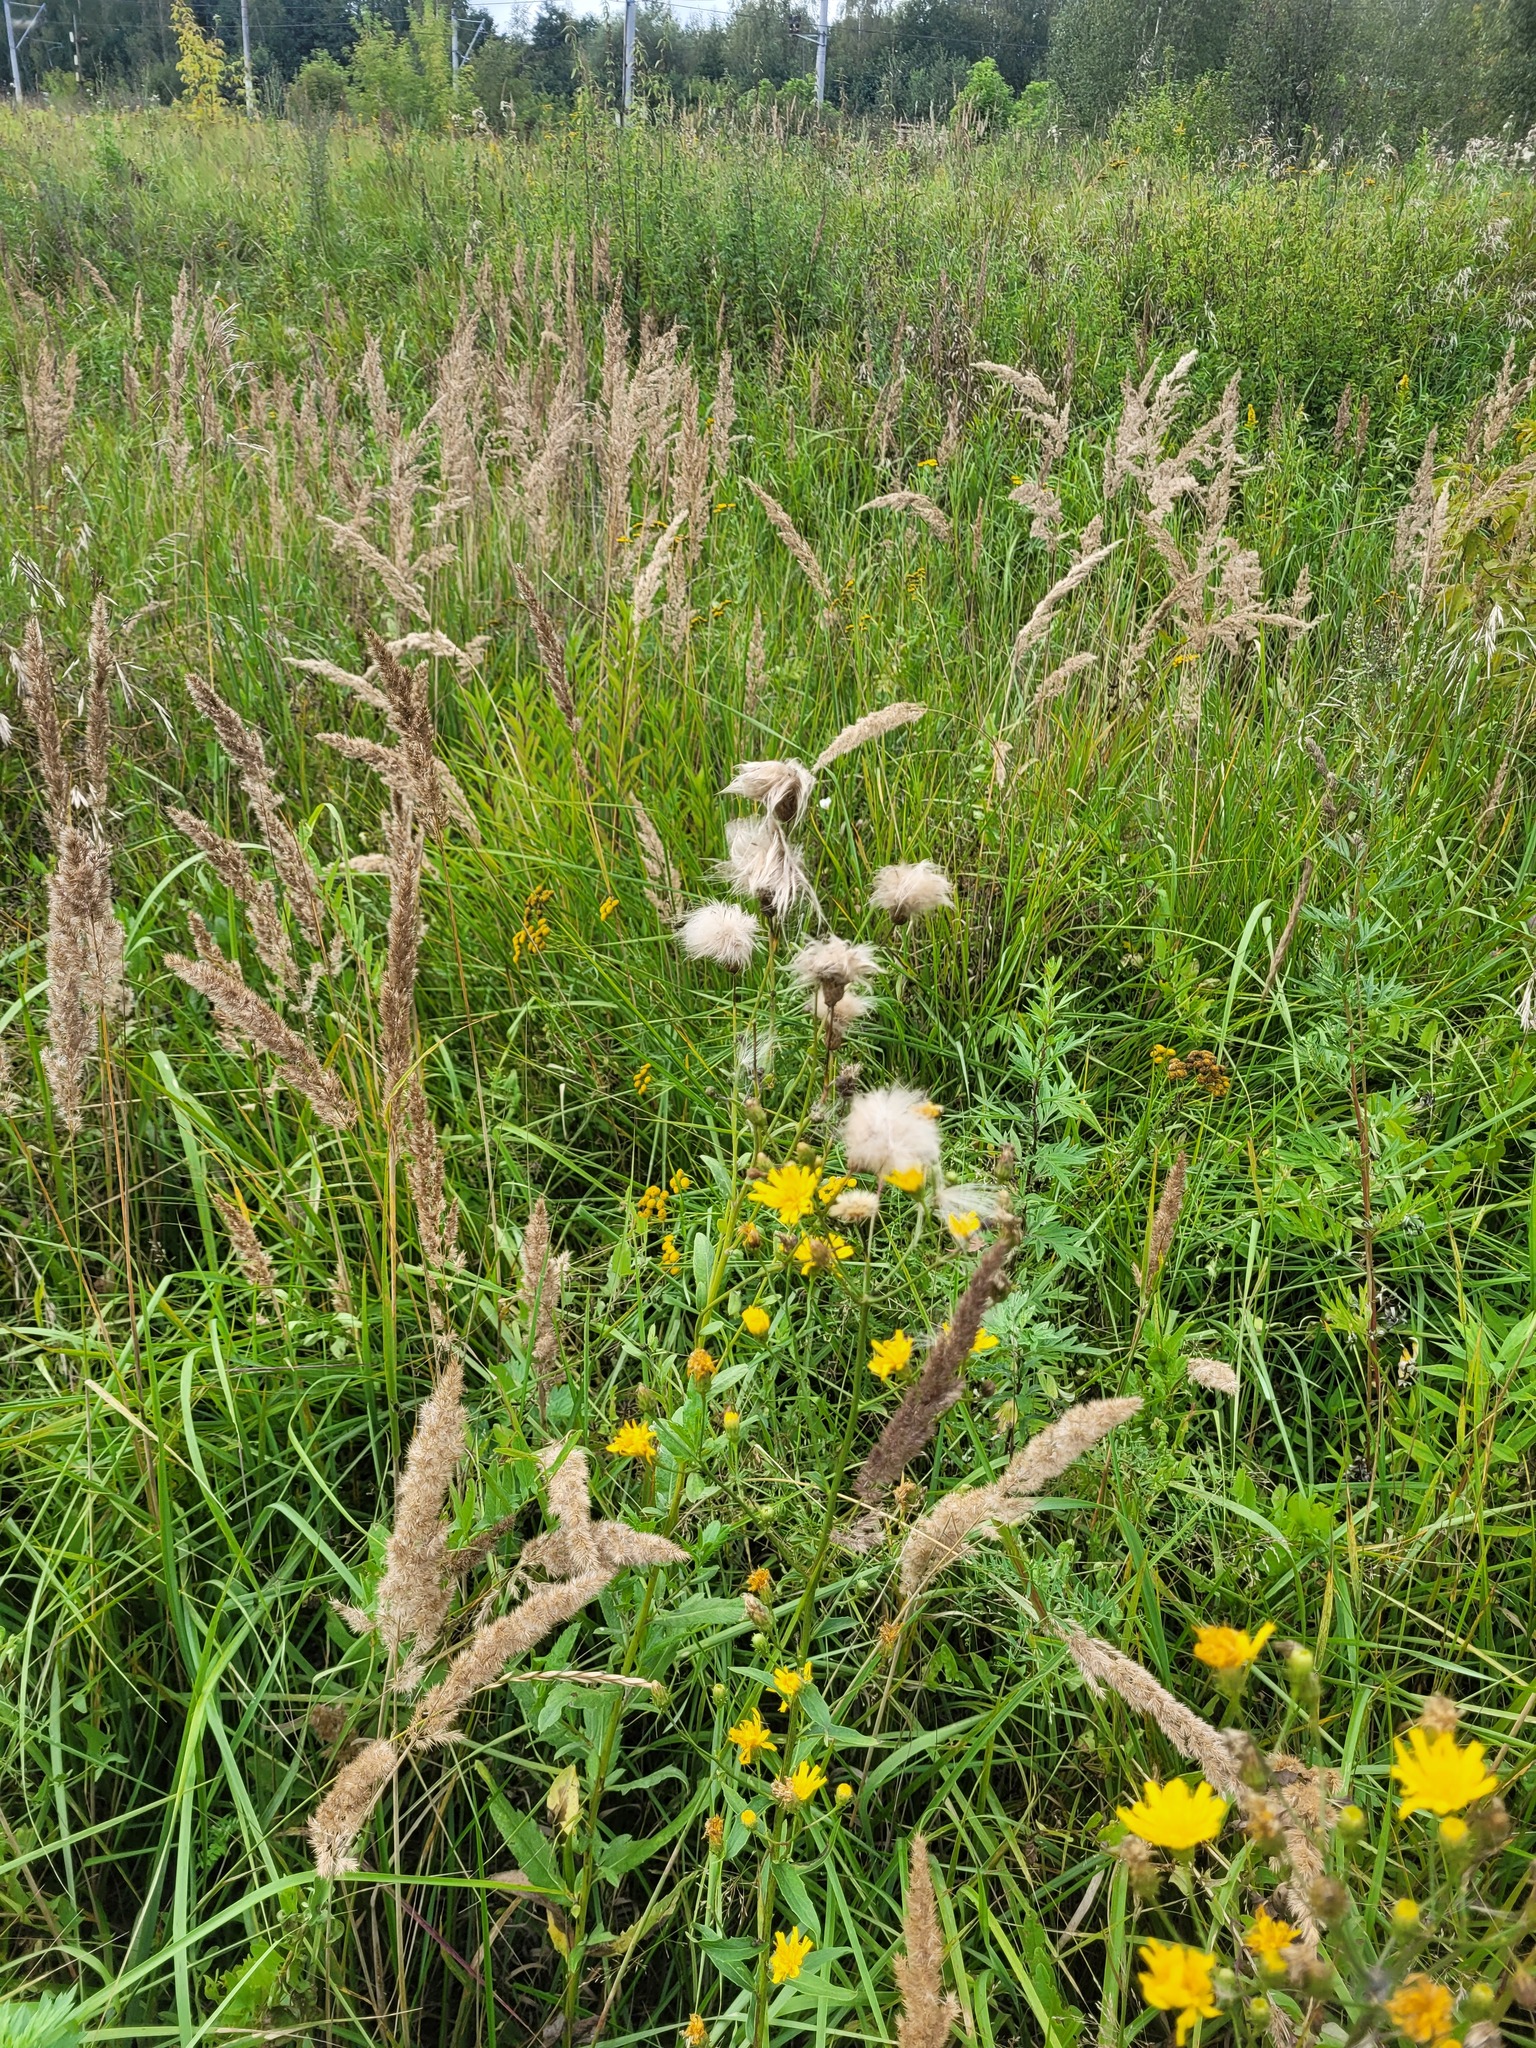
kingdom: Plantae
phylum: Tracheophyta
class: Magnoliopsida
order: Asterales
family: Asteraceae
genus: Cirsium
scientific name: Cirsium arvense
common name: Creeping thistle
